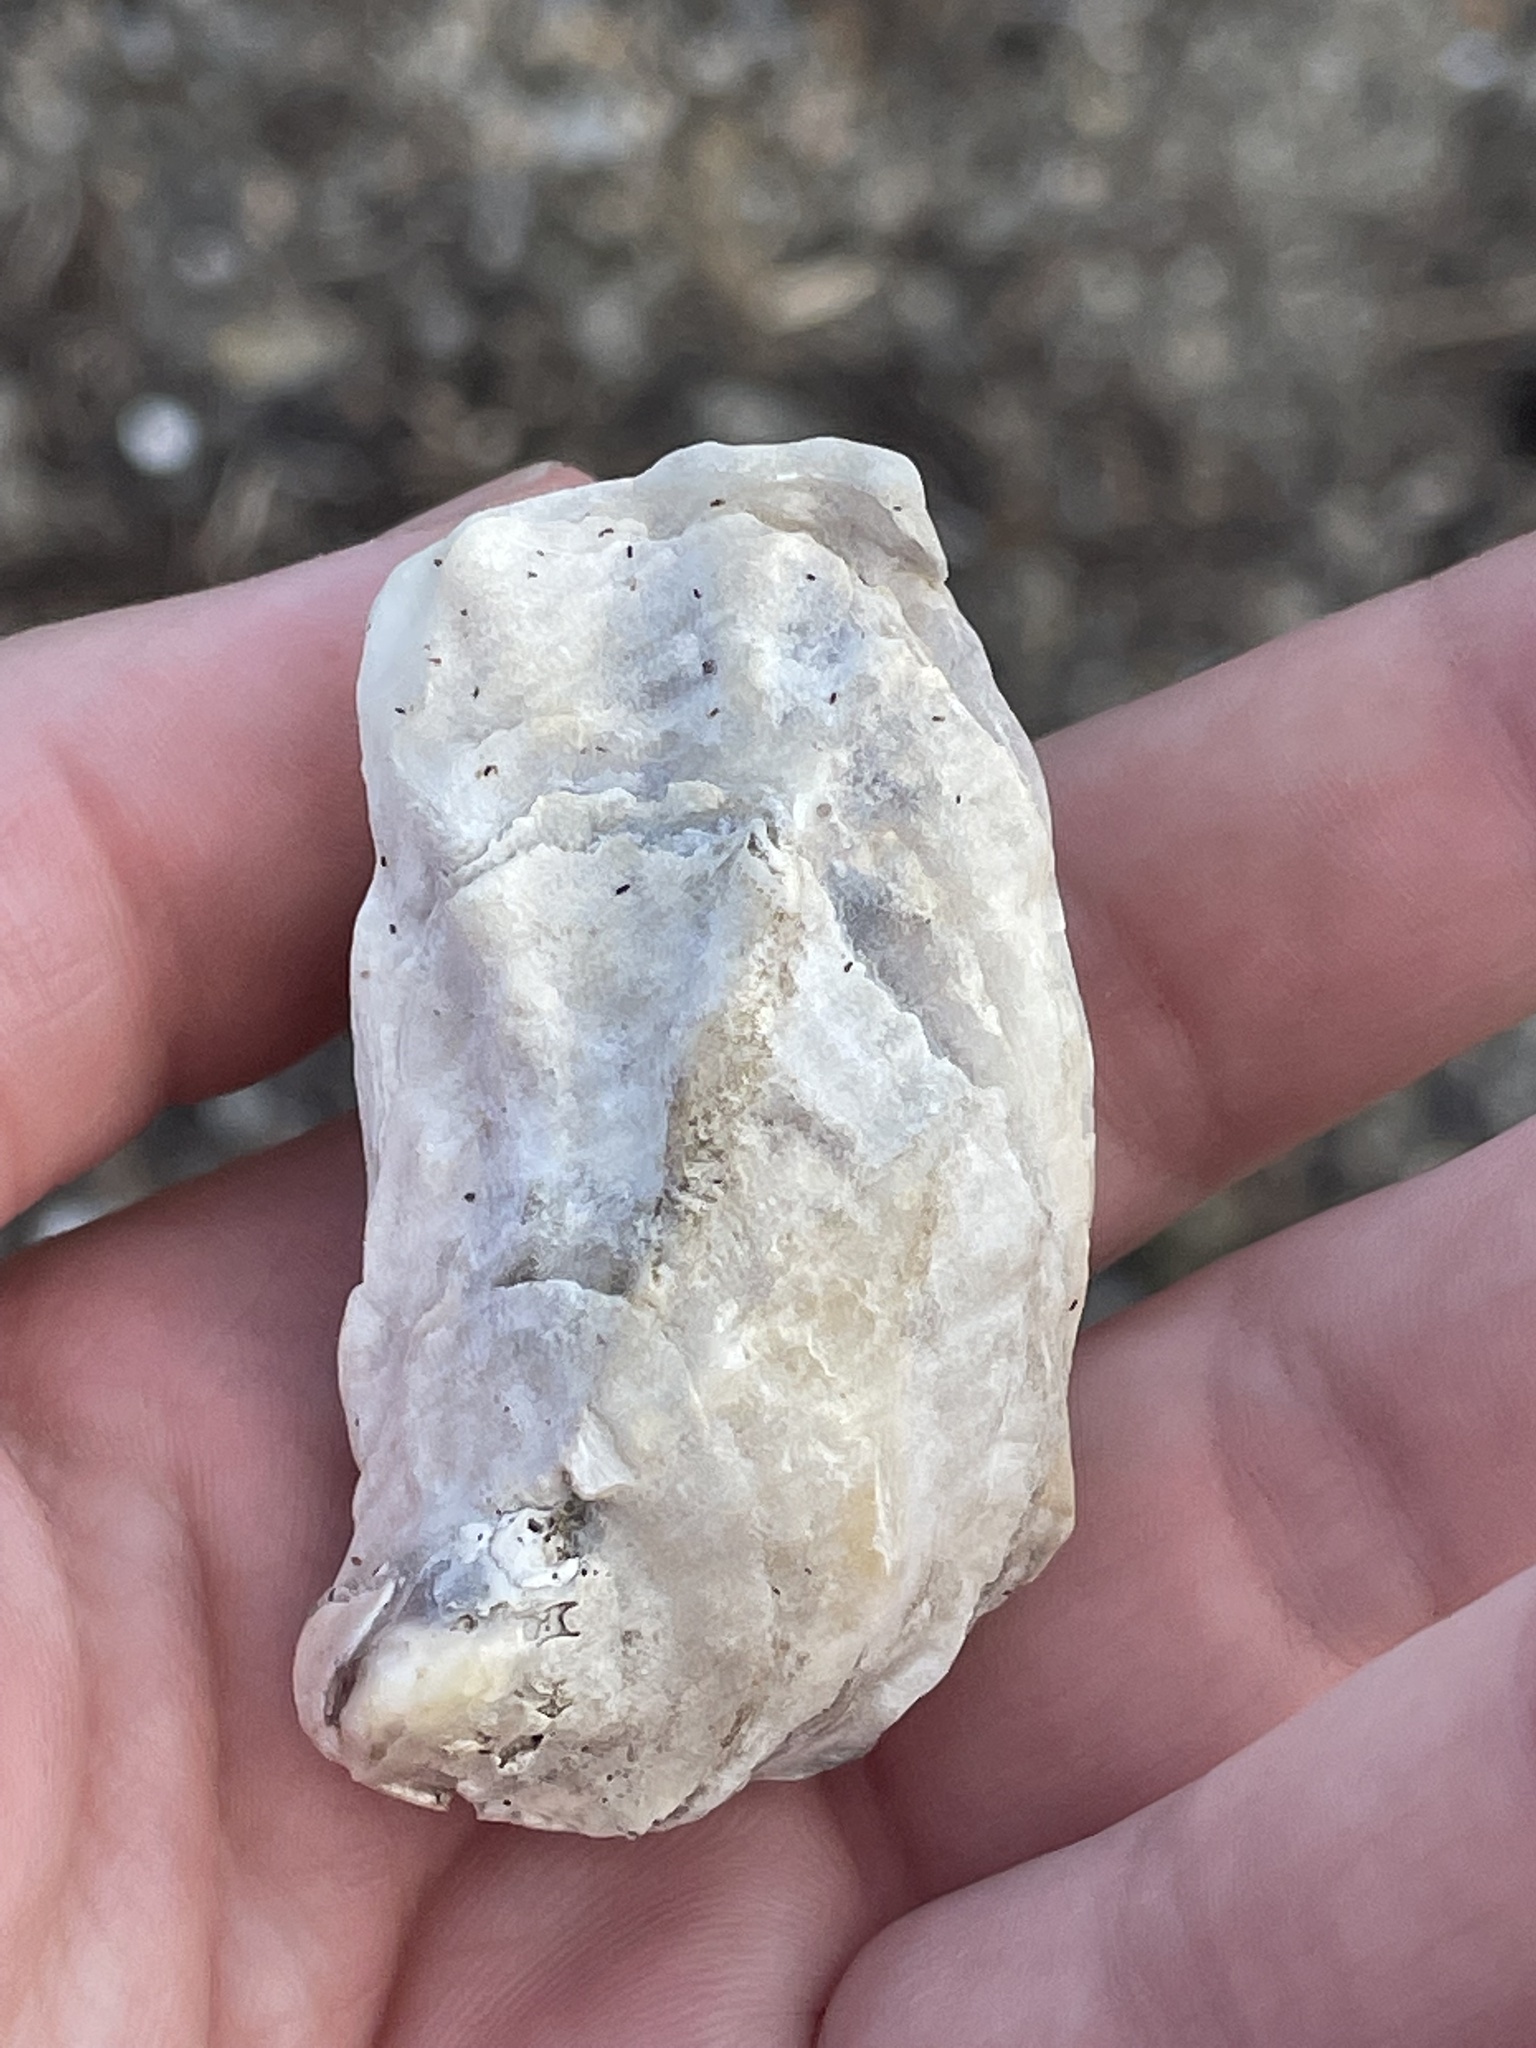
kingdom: Animalia
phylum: Mollusca
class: Bivalvia
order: Ostreida
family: Ostreidae
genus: Crassostrea
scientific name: Crassostrea virginica
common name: American oyster
